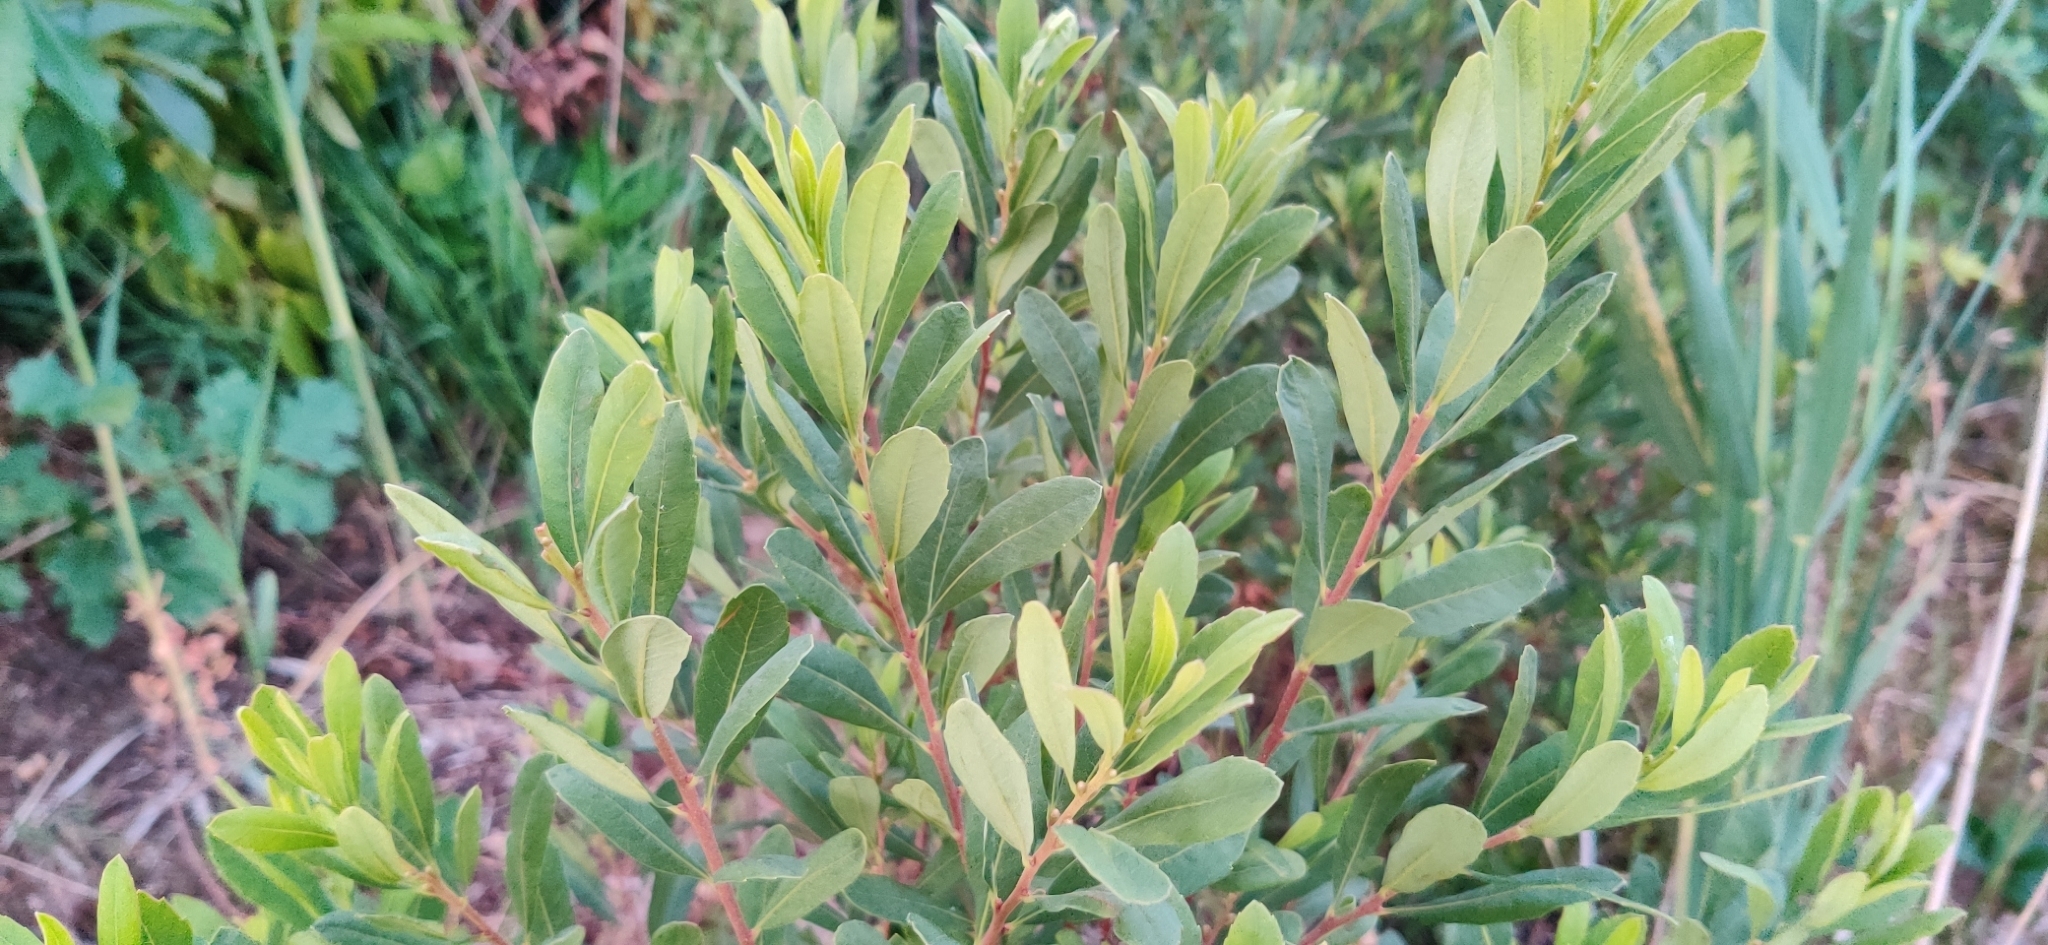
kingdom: Plantae
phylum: Tracheophyta
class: Magnoliopsida
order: Fagales
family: Myricaceae
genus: Myrica
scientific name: Myrica gale
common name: Sweet gale
